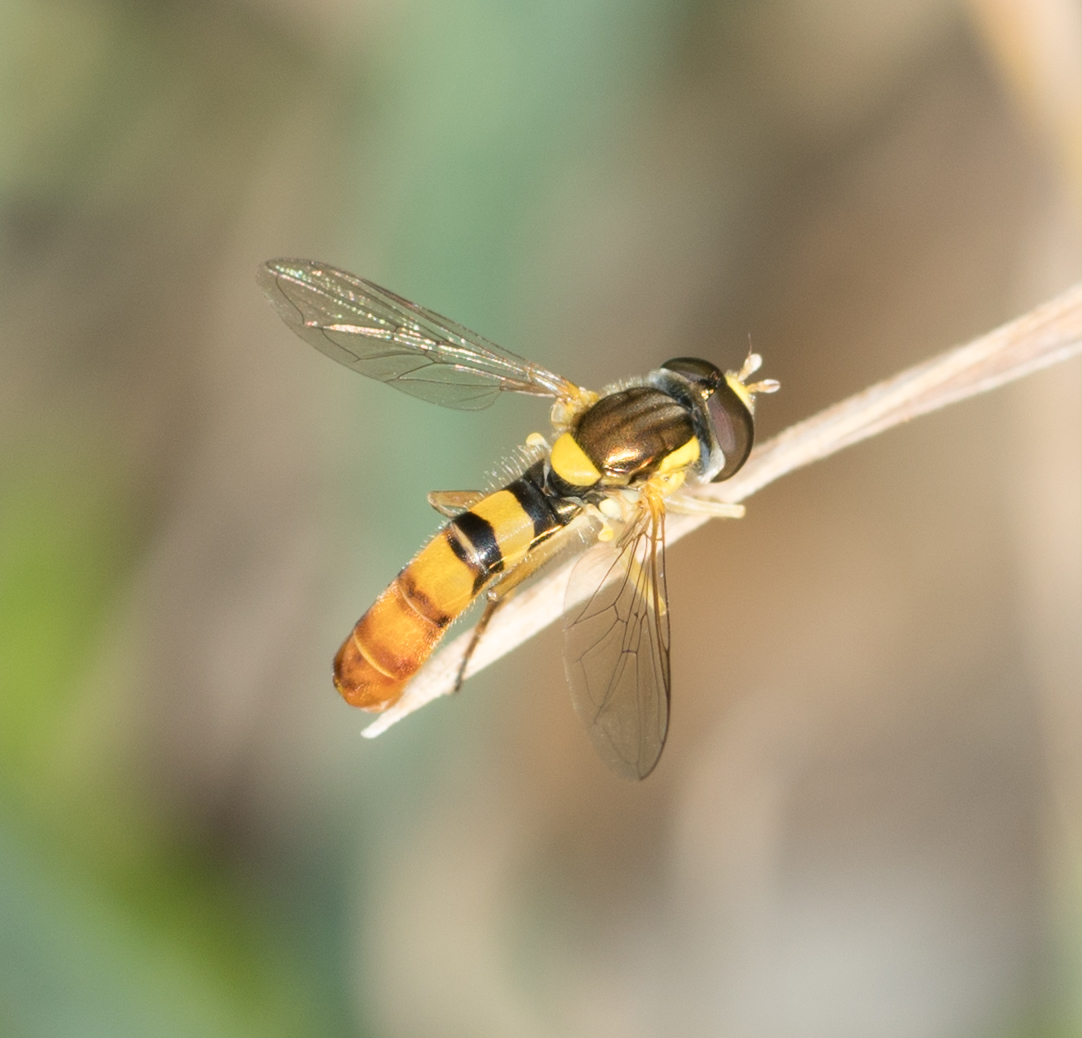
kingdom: Animalia
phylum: Arthropoda
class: Insecta
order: Diptera
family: Syrphidae
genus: Sphaerophoria
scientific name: Sphaerophoria
